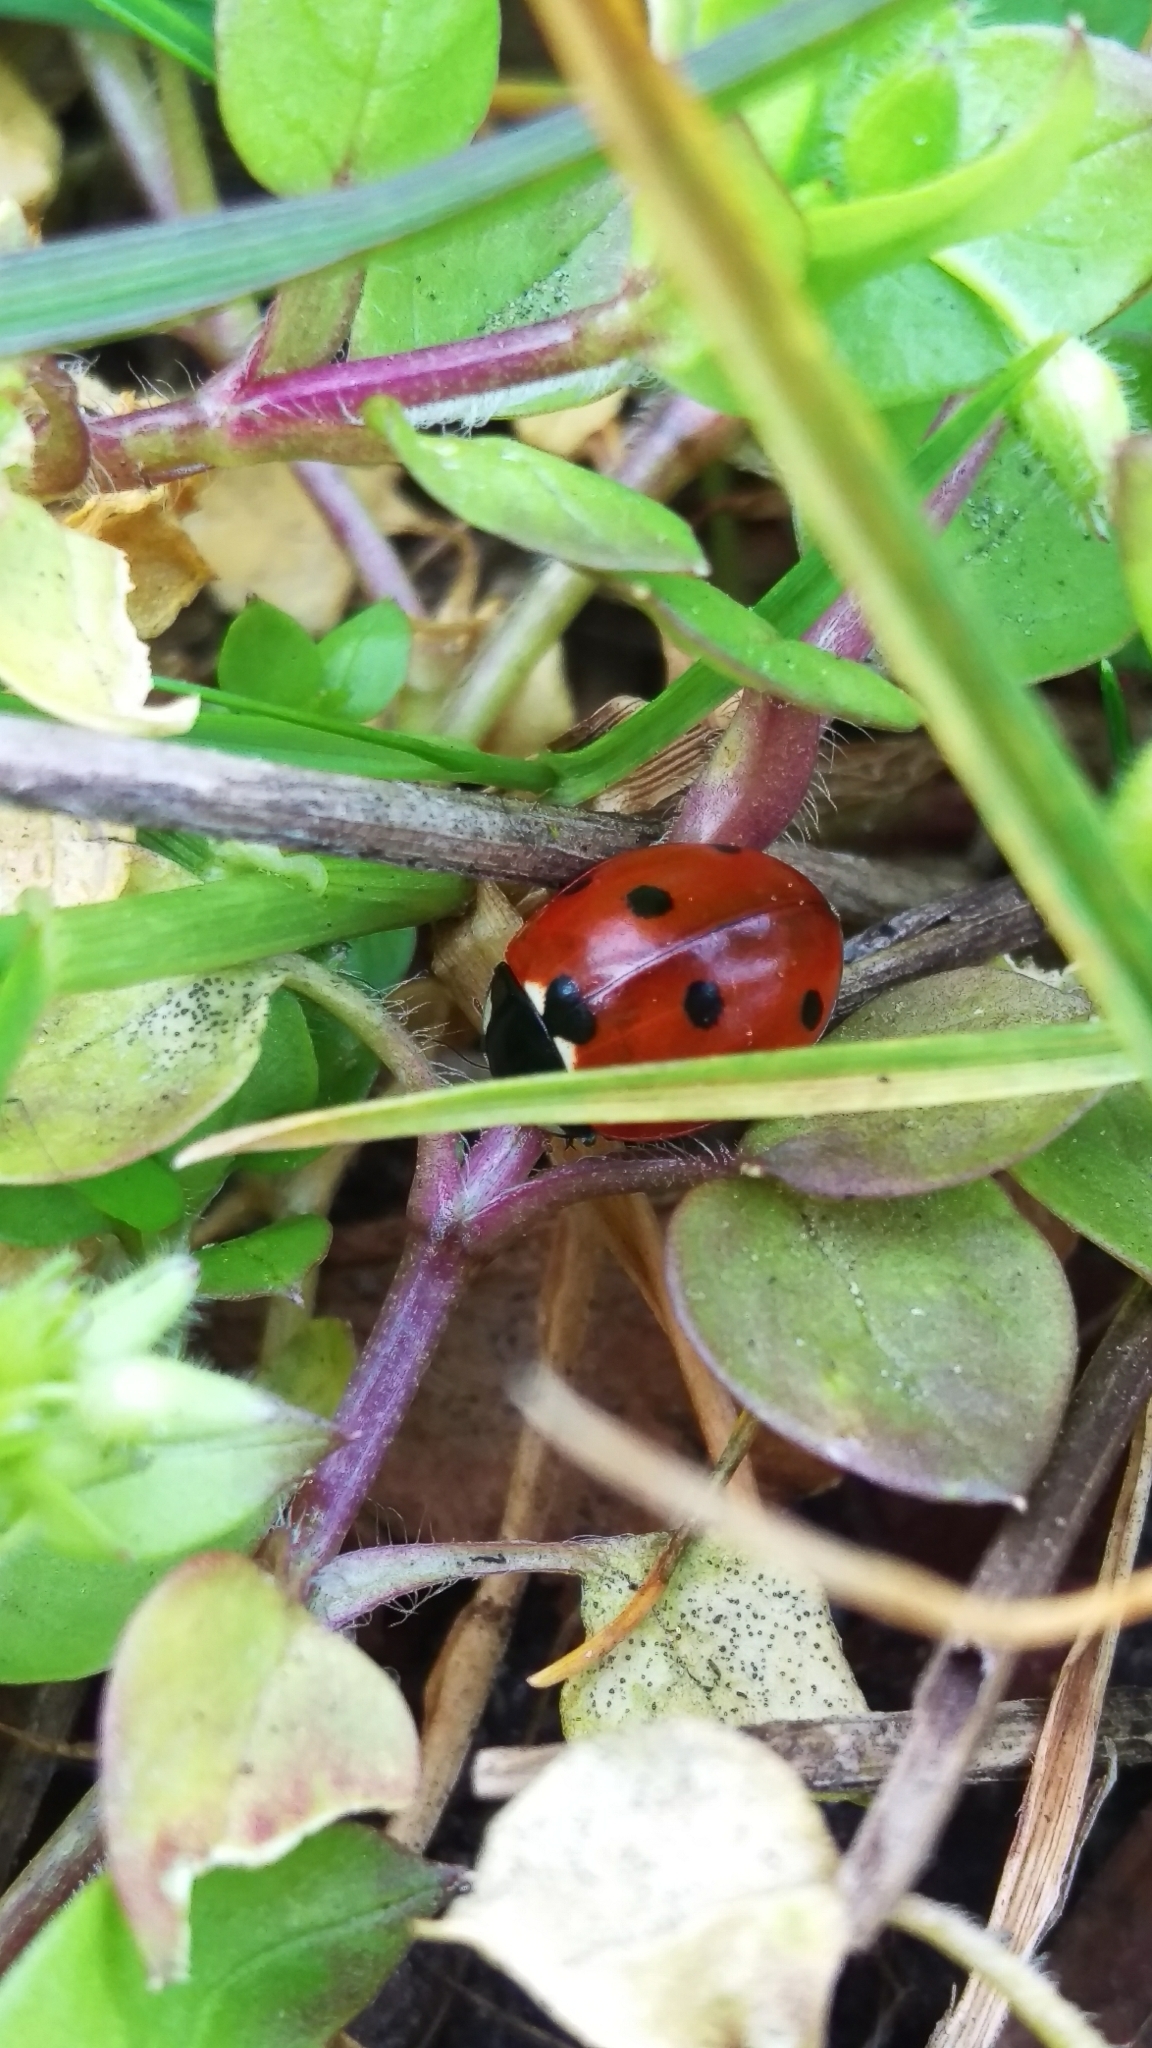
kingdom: Animalia
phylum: Arthropoda
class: Insecta
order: Coleoptera
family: Coccinellidae
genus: Coccinella
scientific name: Coccinella septempunctata
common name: Sevenspotted lady beetle
